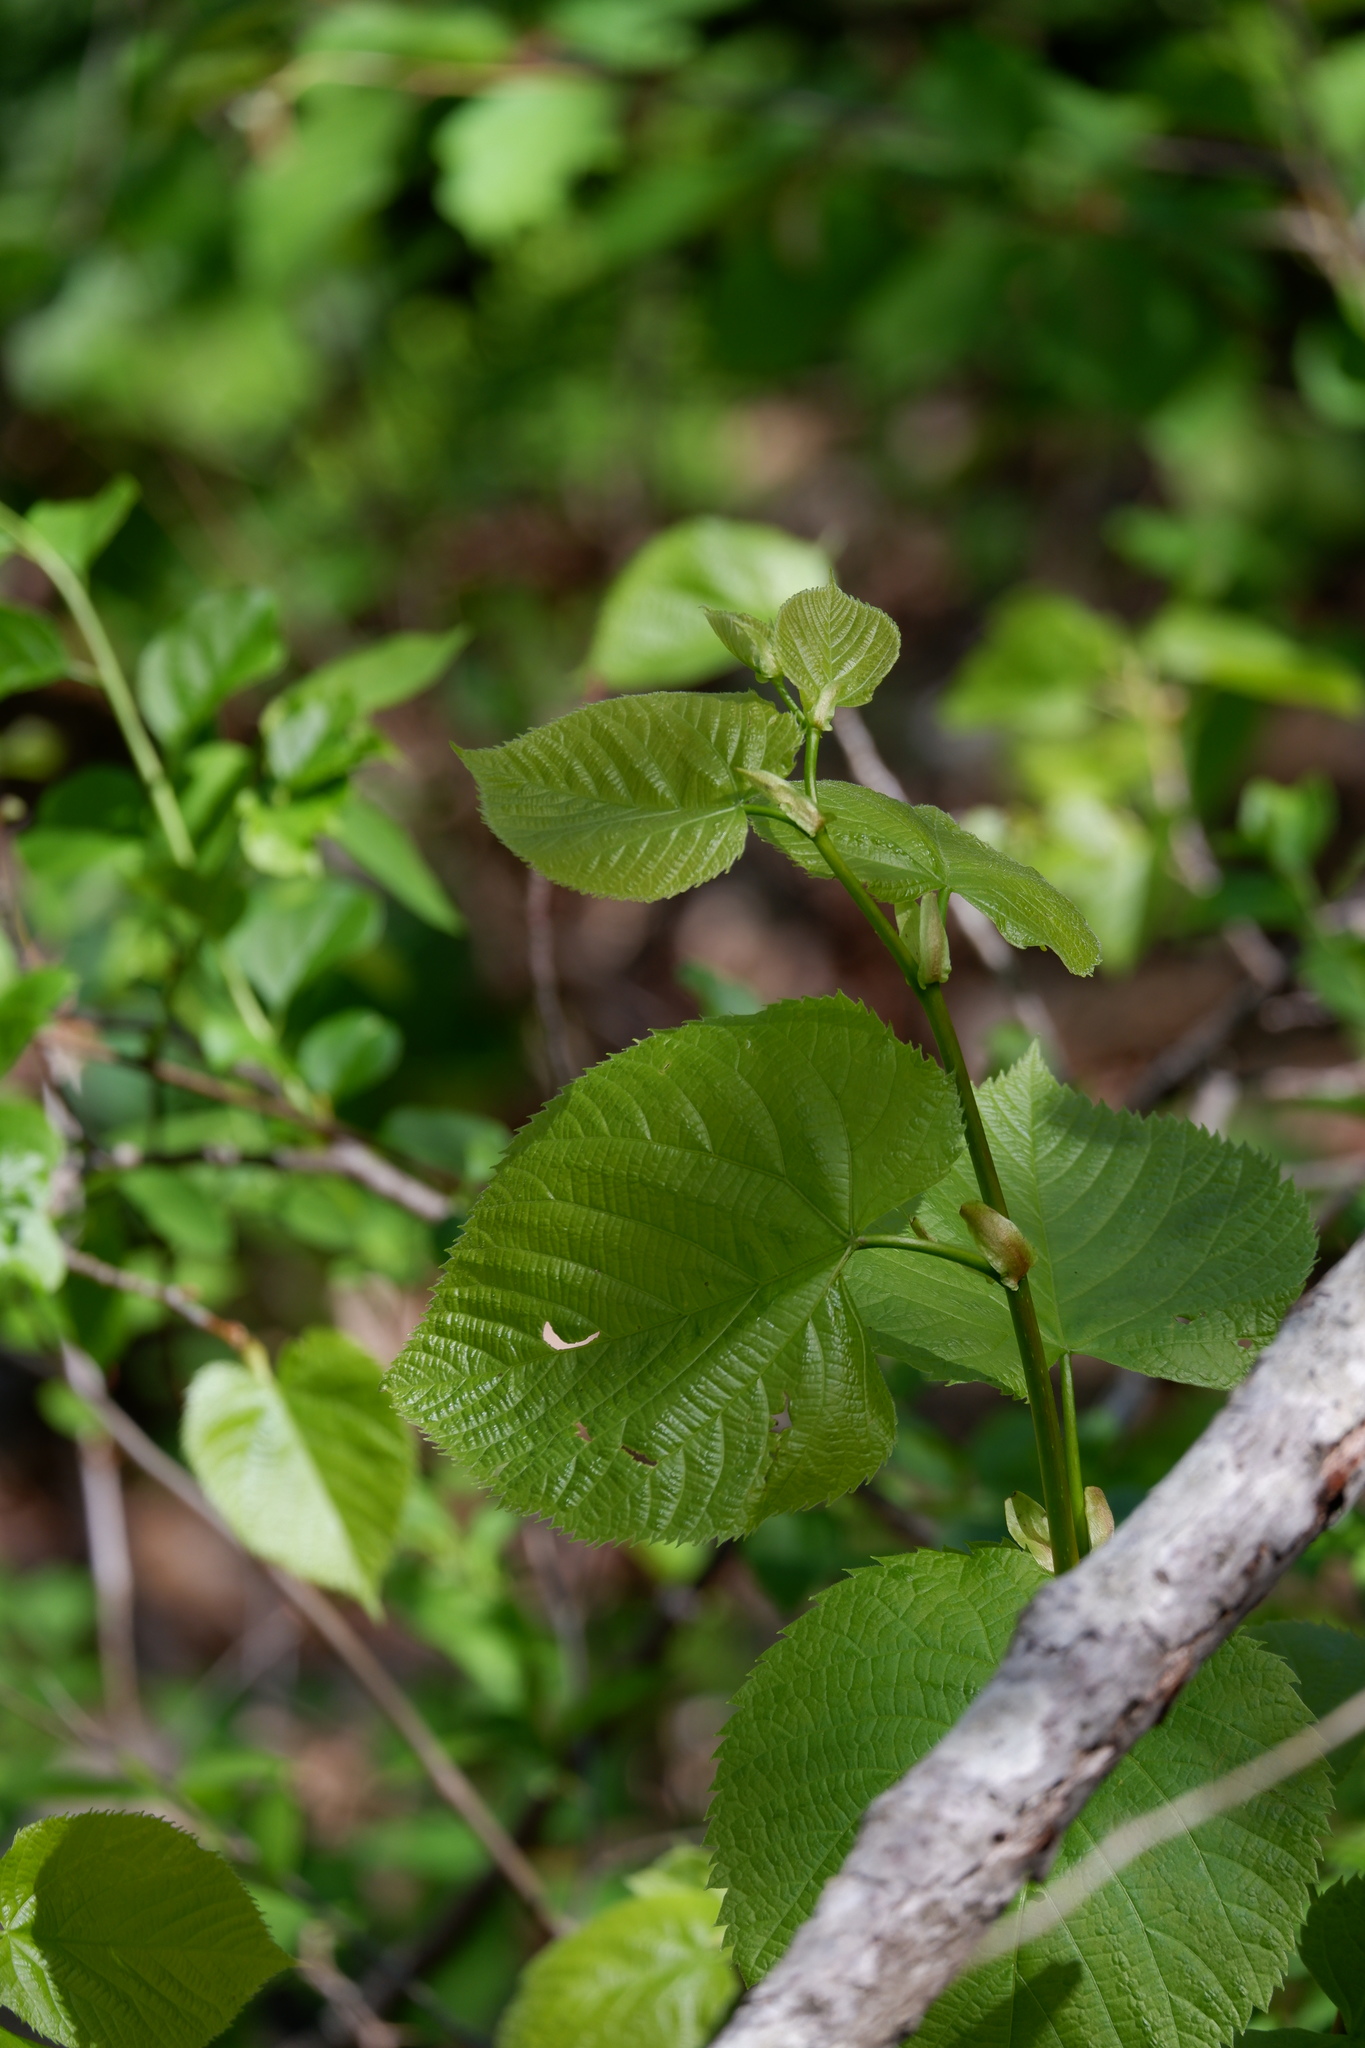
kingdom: Plantae
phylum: Tracheophyta
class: Magnoliopsida
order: Malvales
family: Malvaceae
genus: Tilia
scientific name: Tilia americana
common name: Basswood
